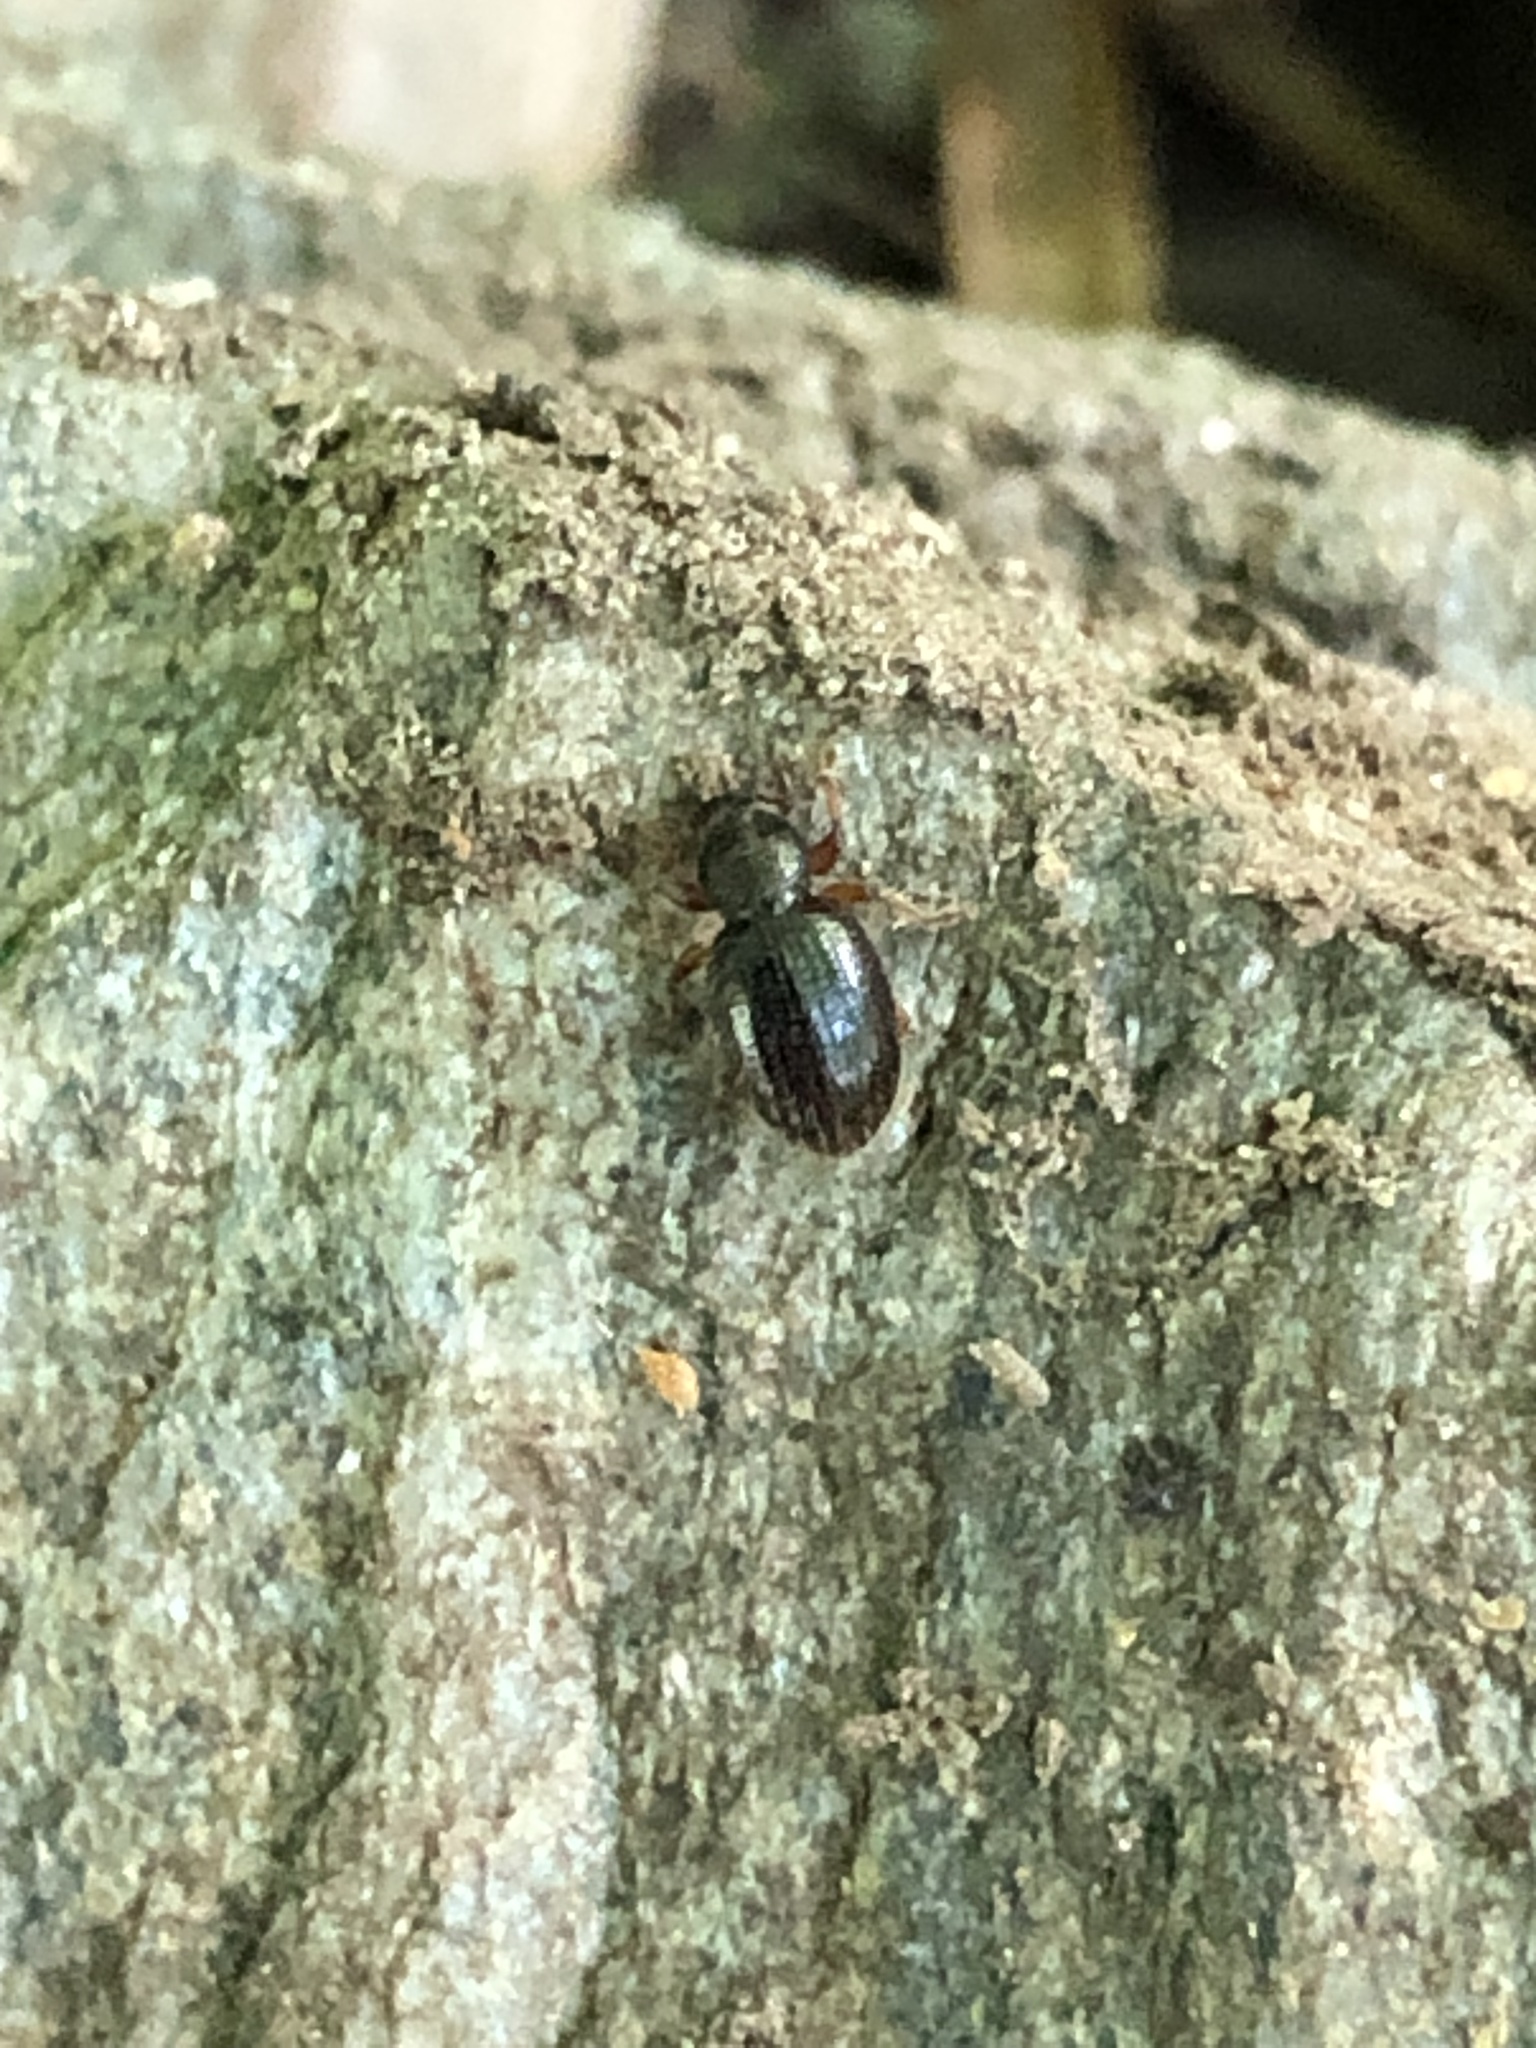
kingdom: Animalia
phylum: Arthropoda
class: Insecta
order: Coleoptera
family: Curculionidae
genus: Exomias
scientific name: Exomias pellucidus
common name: Hairy spider weevil
